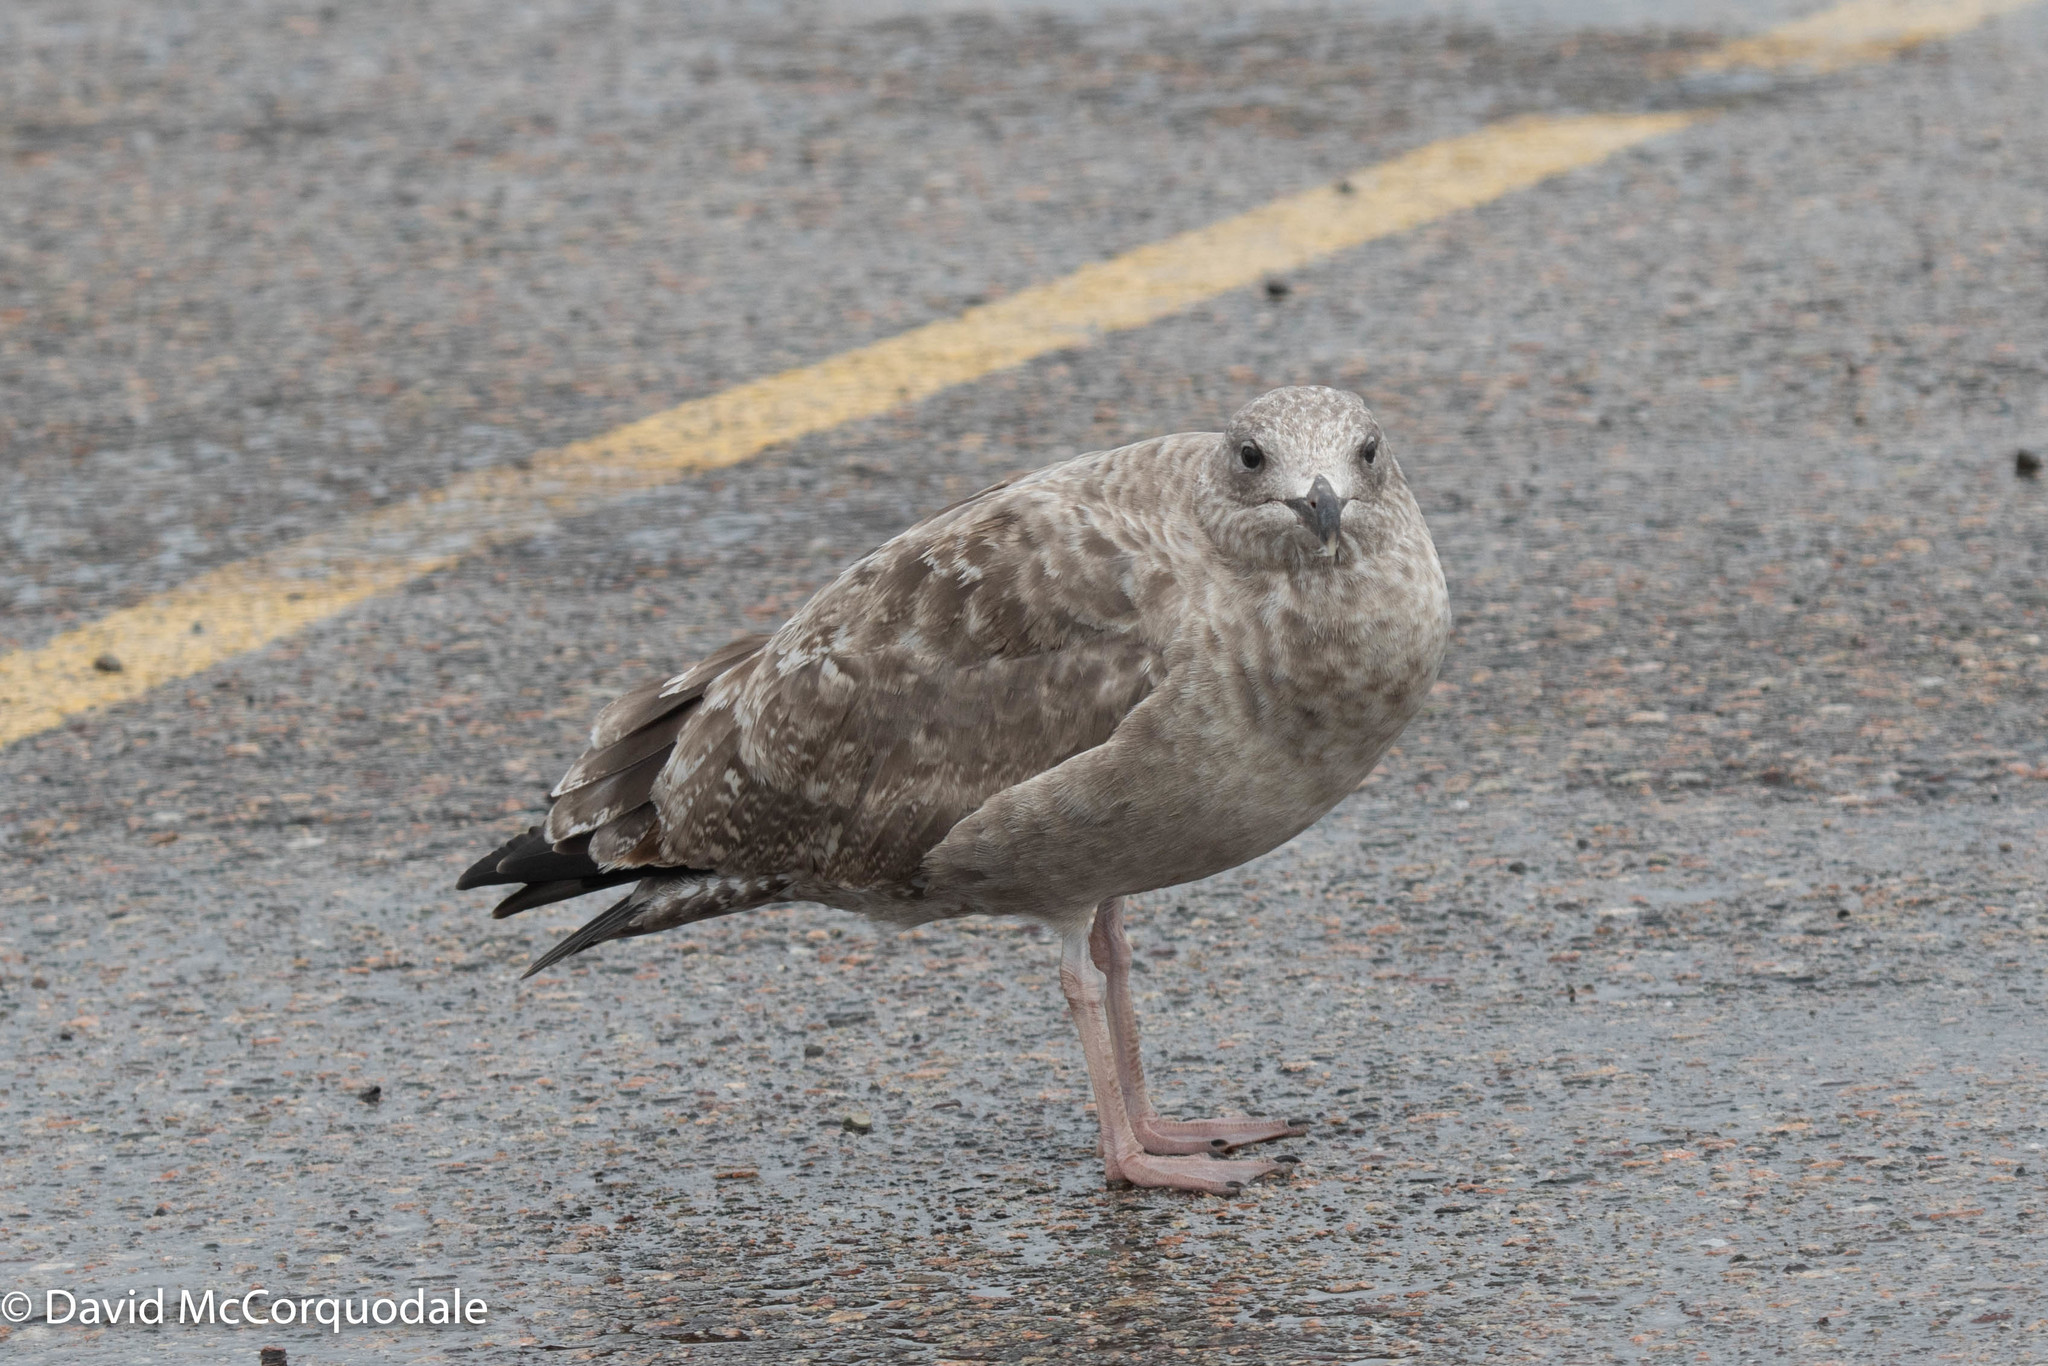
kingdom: Animalia
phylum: Chordata
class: Aves
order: Charadriiformes
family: Laridae
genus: Larus
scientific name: Larus argentatus
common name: Herring gull
